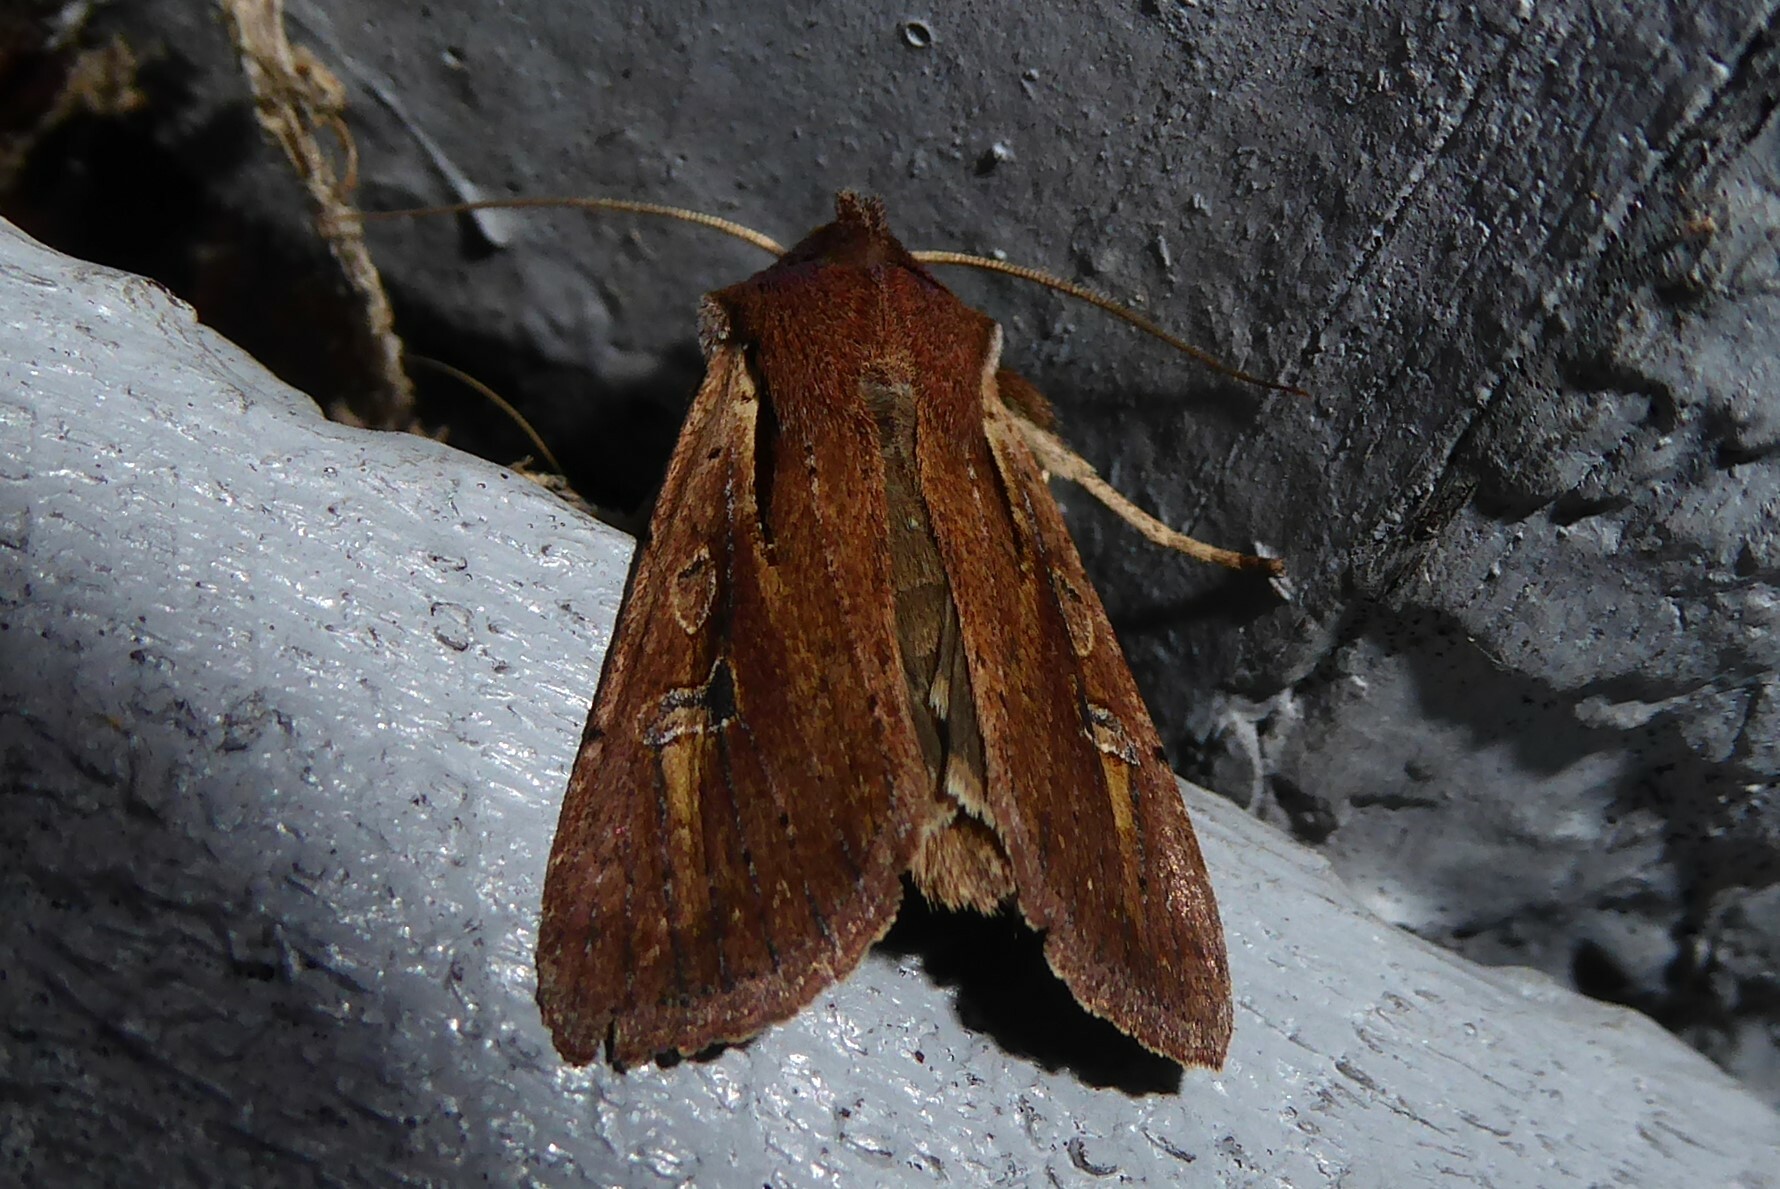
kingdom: Animalia
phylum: Arthropoda
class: Insecta
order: Lepidoptera
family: Noctuidae
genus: Ichneutica
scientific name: Ichneutica atristriga
